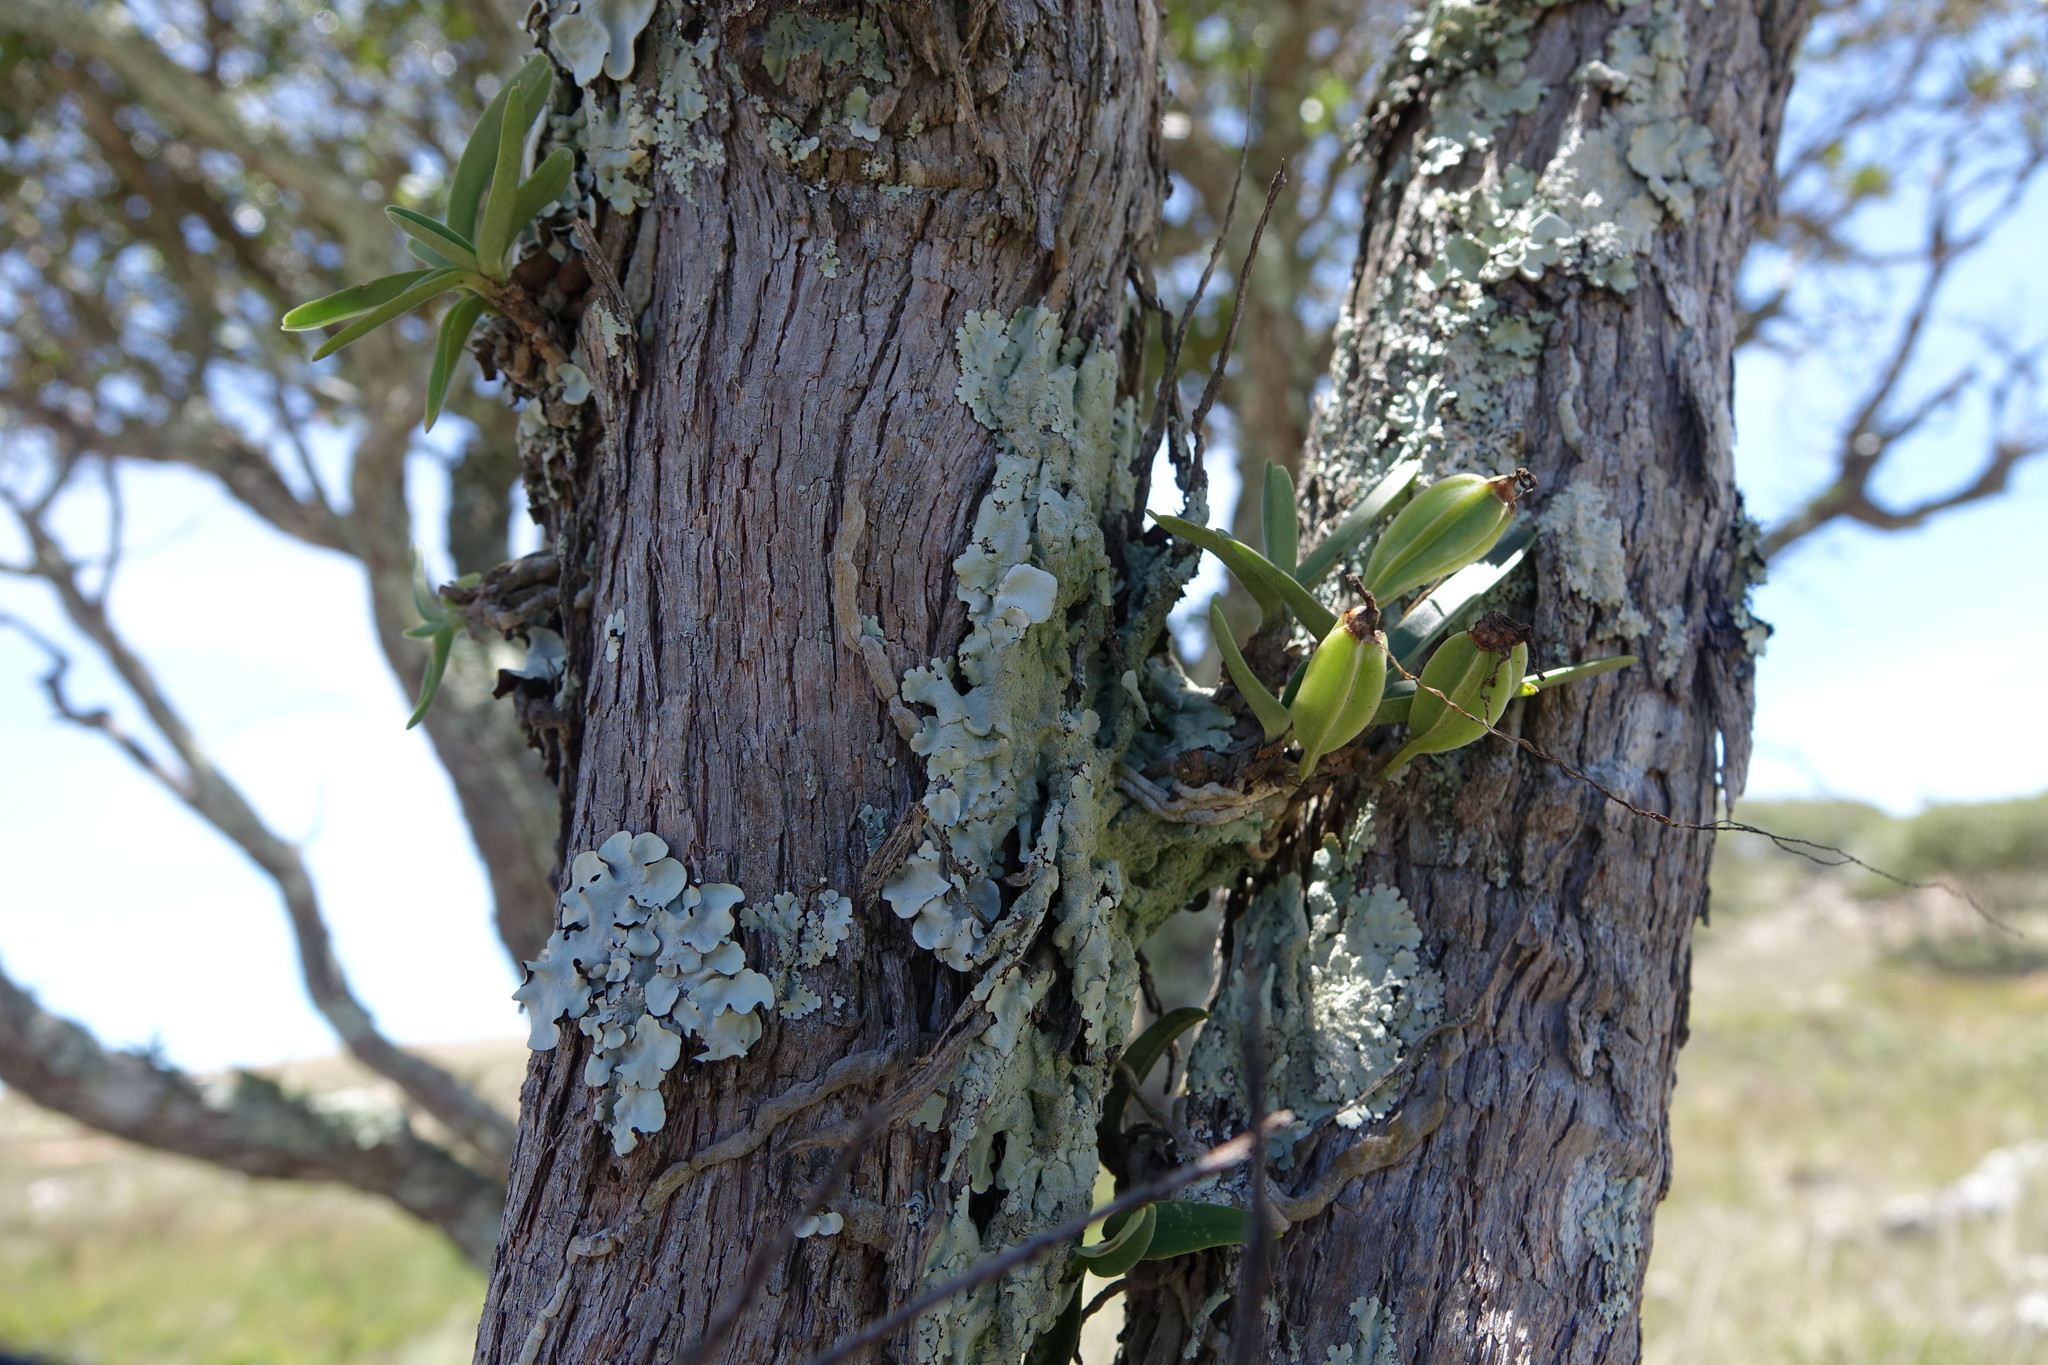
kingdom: Plantae
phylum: Tracheophyta
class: Liliopsida
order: Asparagales
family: Orchidaceae
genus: Angraecum
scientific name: Angraecum rutenbergianum
